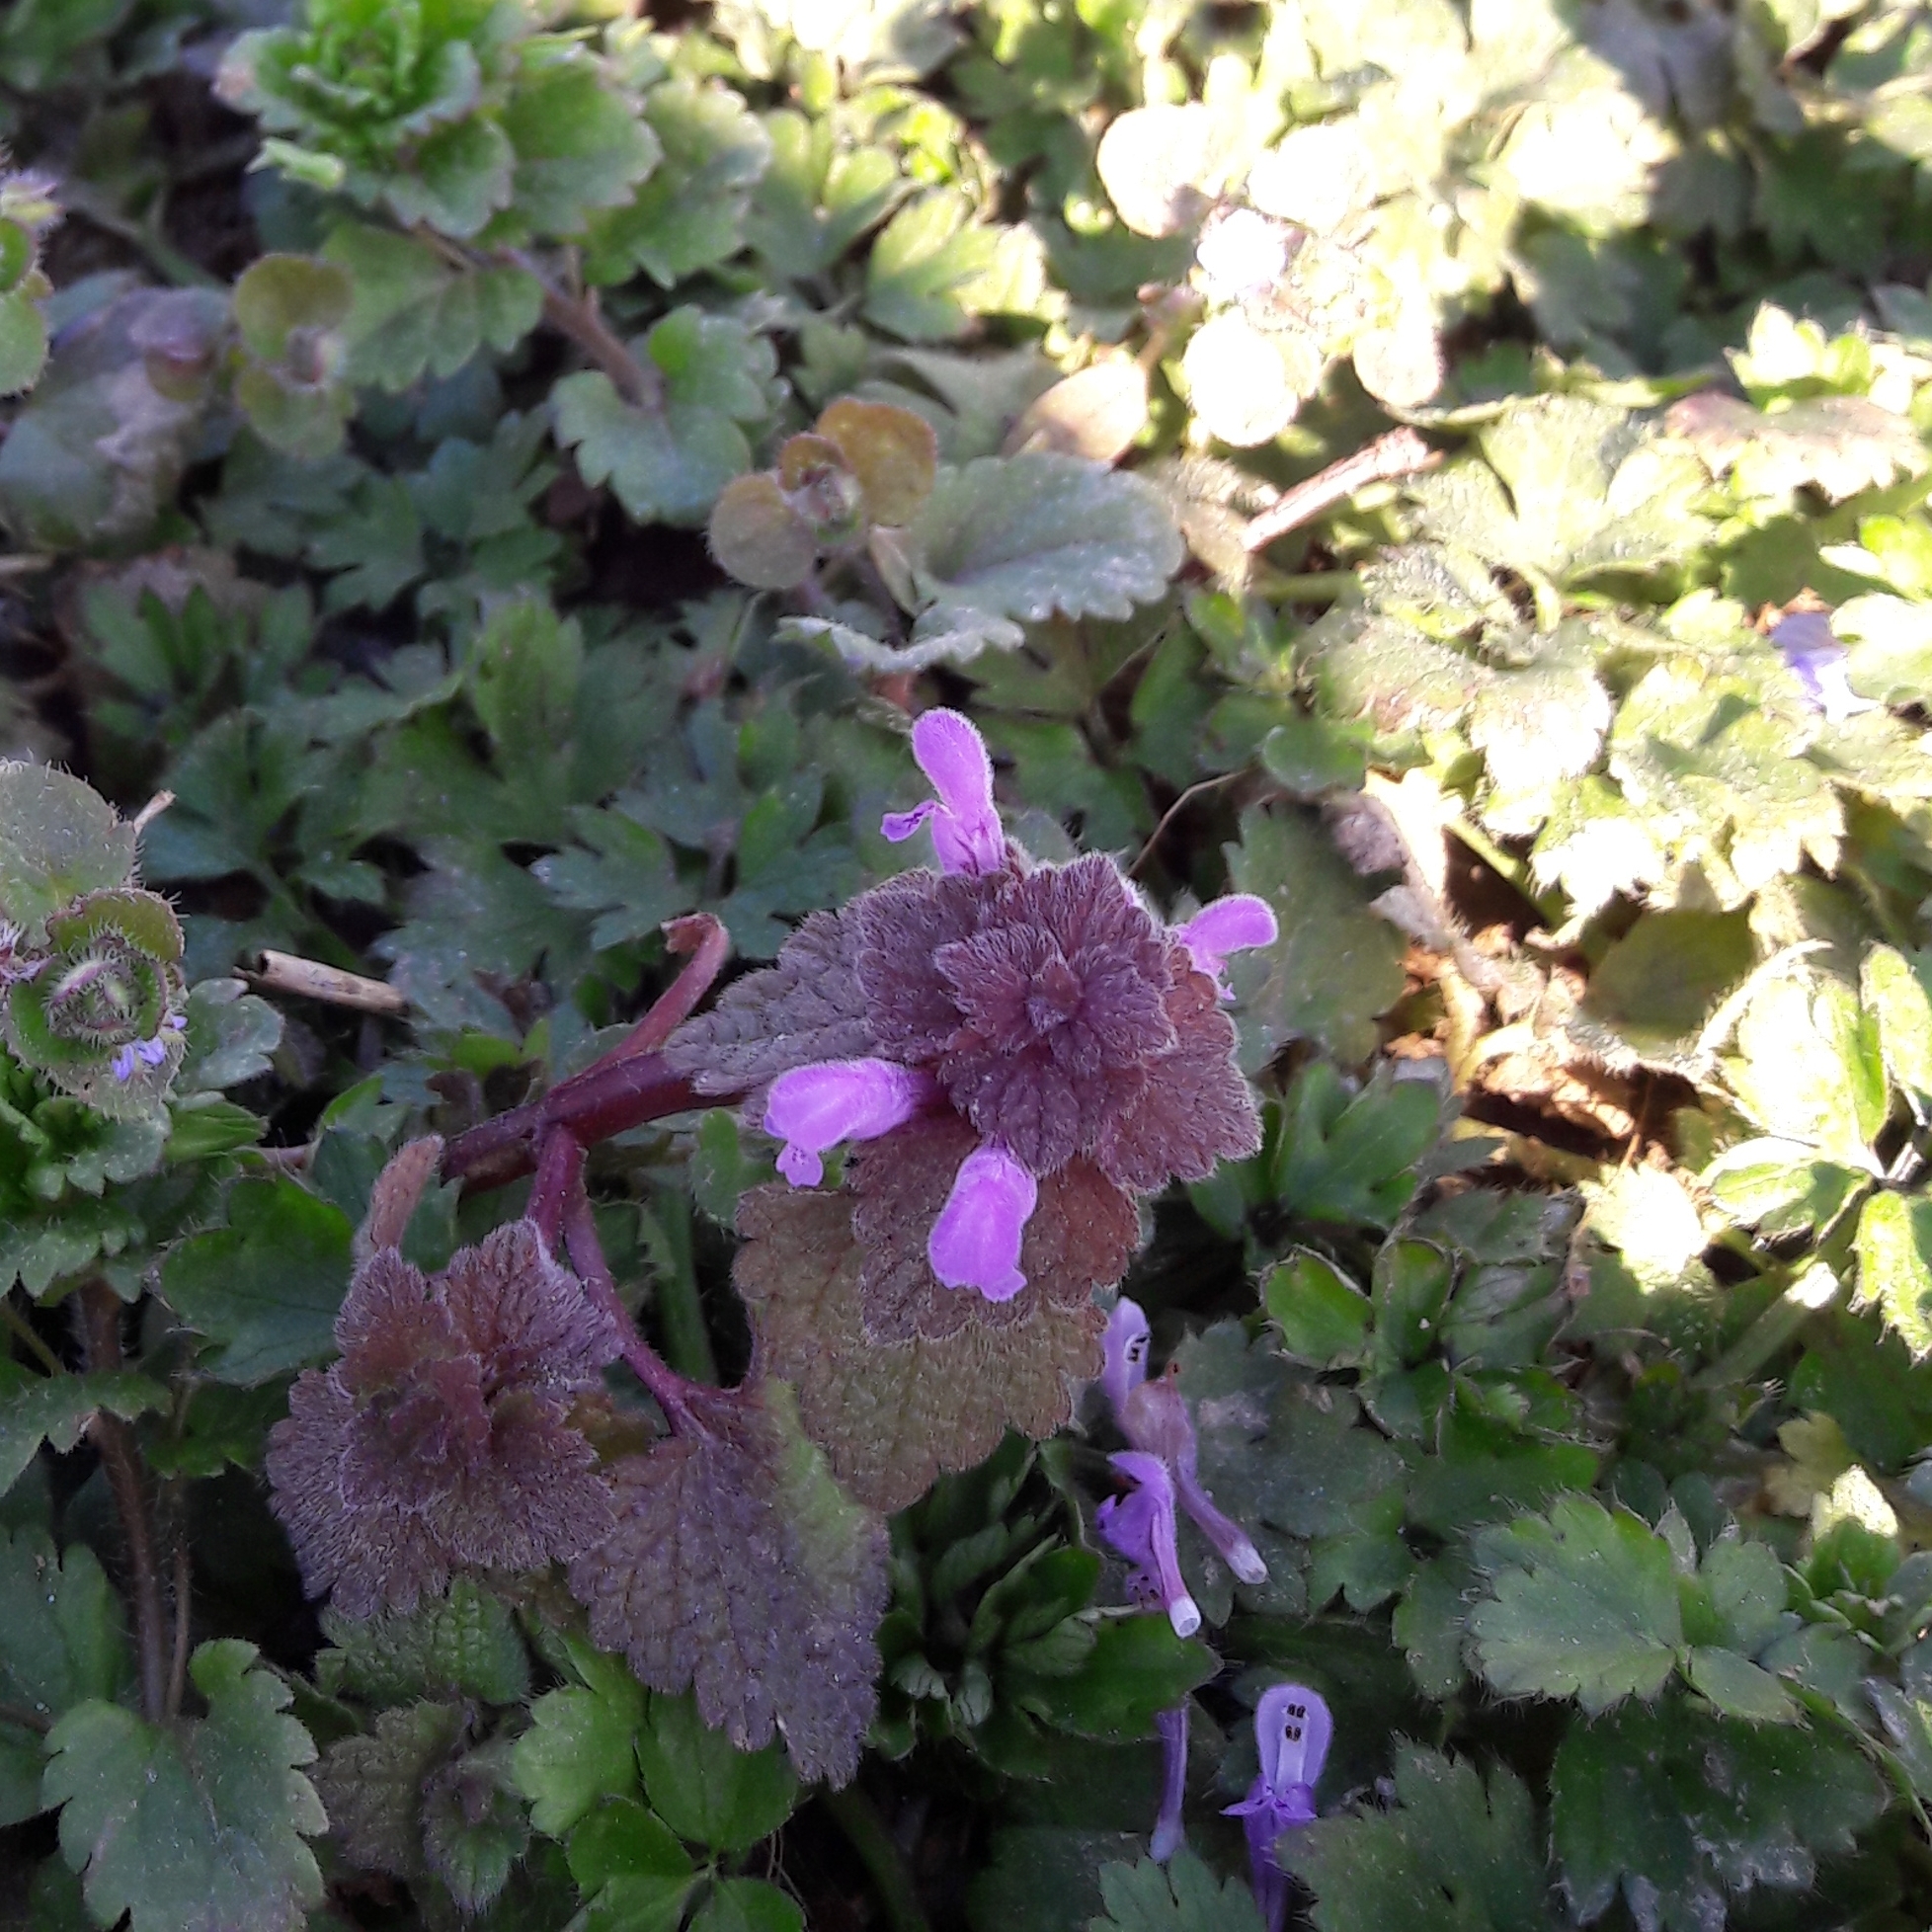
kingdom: Plantae
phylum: Tracheophyta
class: Magnoliopsida
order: Lamiales
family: Lamiaceae
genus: Lamium
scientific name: Lamium purpureum
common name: Red dead-nettle
